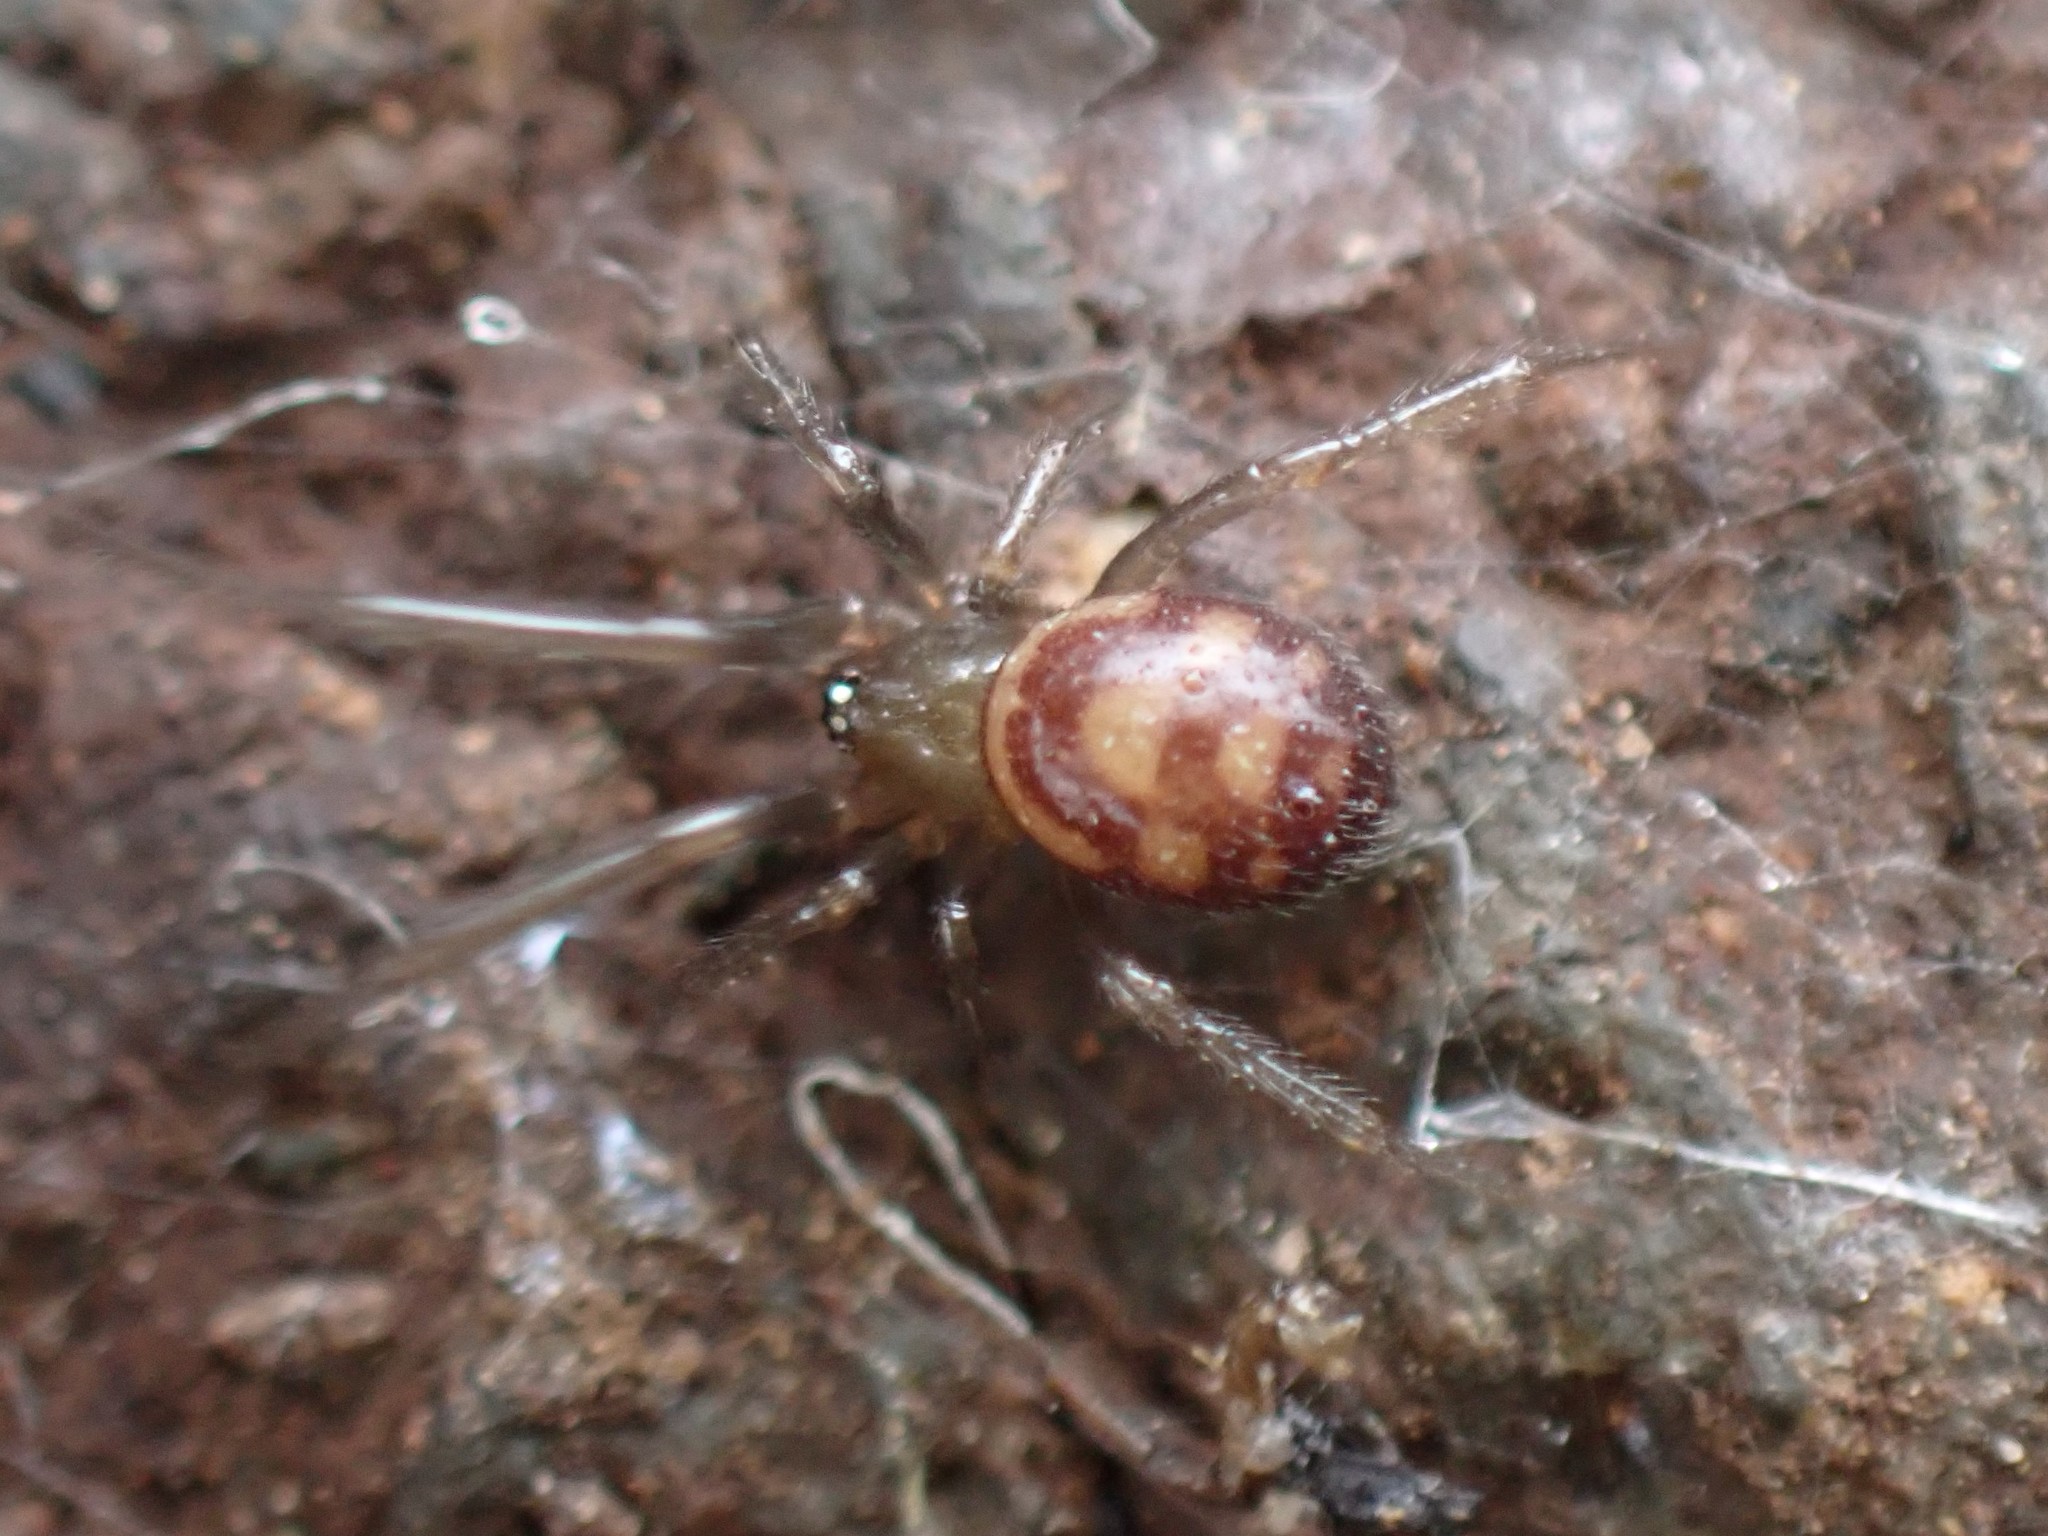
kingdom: Animalia
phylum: Arthropoda
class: Arachnida
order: Araneae
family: Theridiidae
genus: Steatoda
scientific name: Steatoda grossa
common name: False black widow
